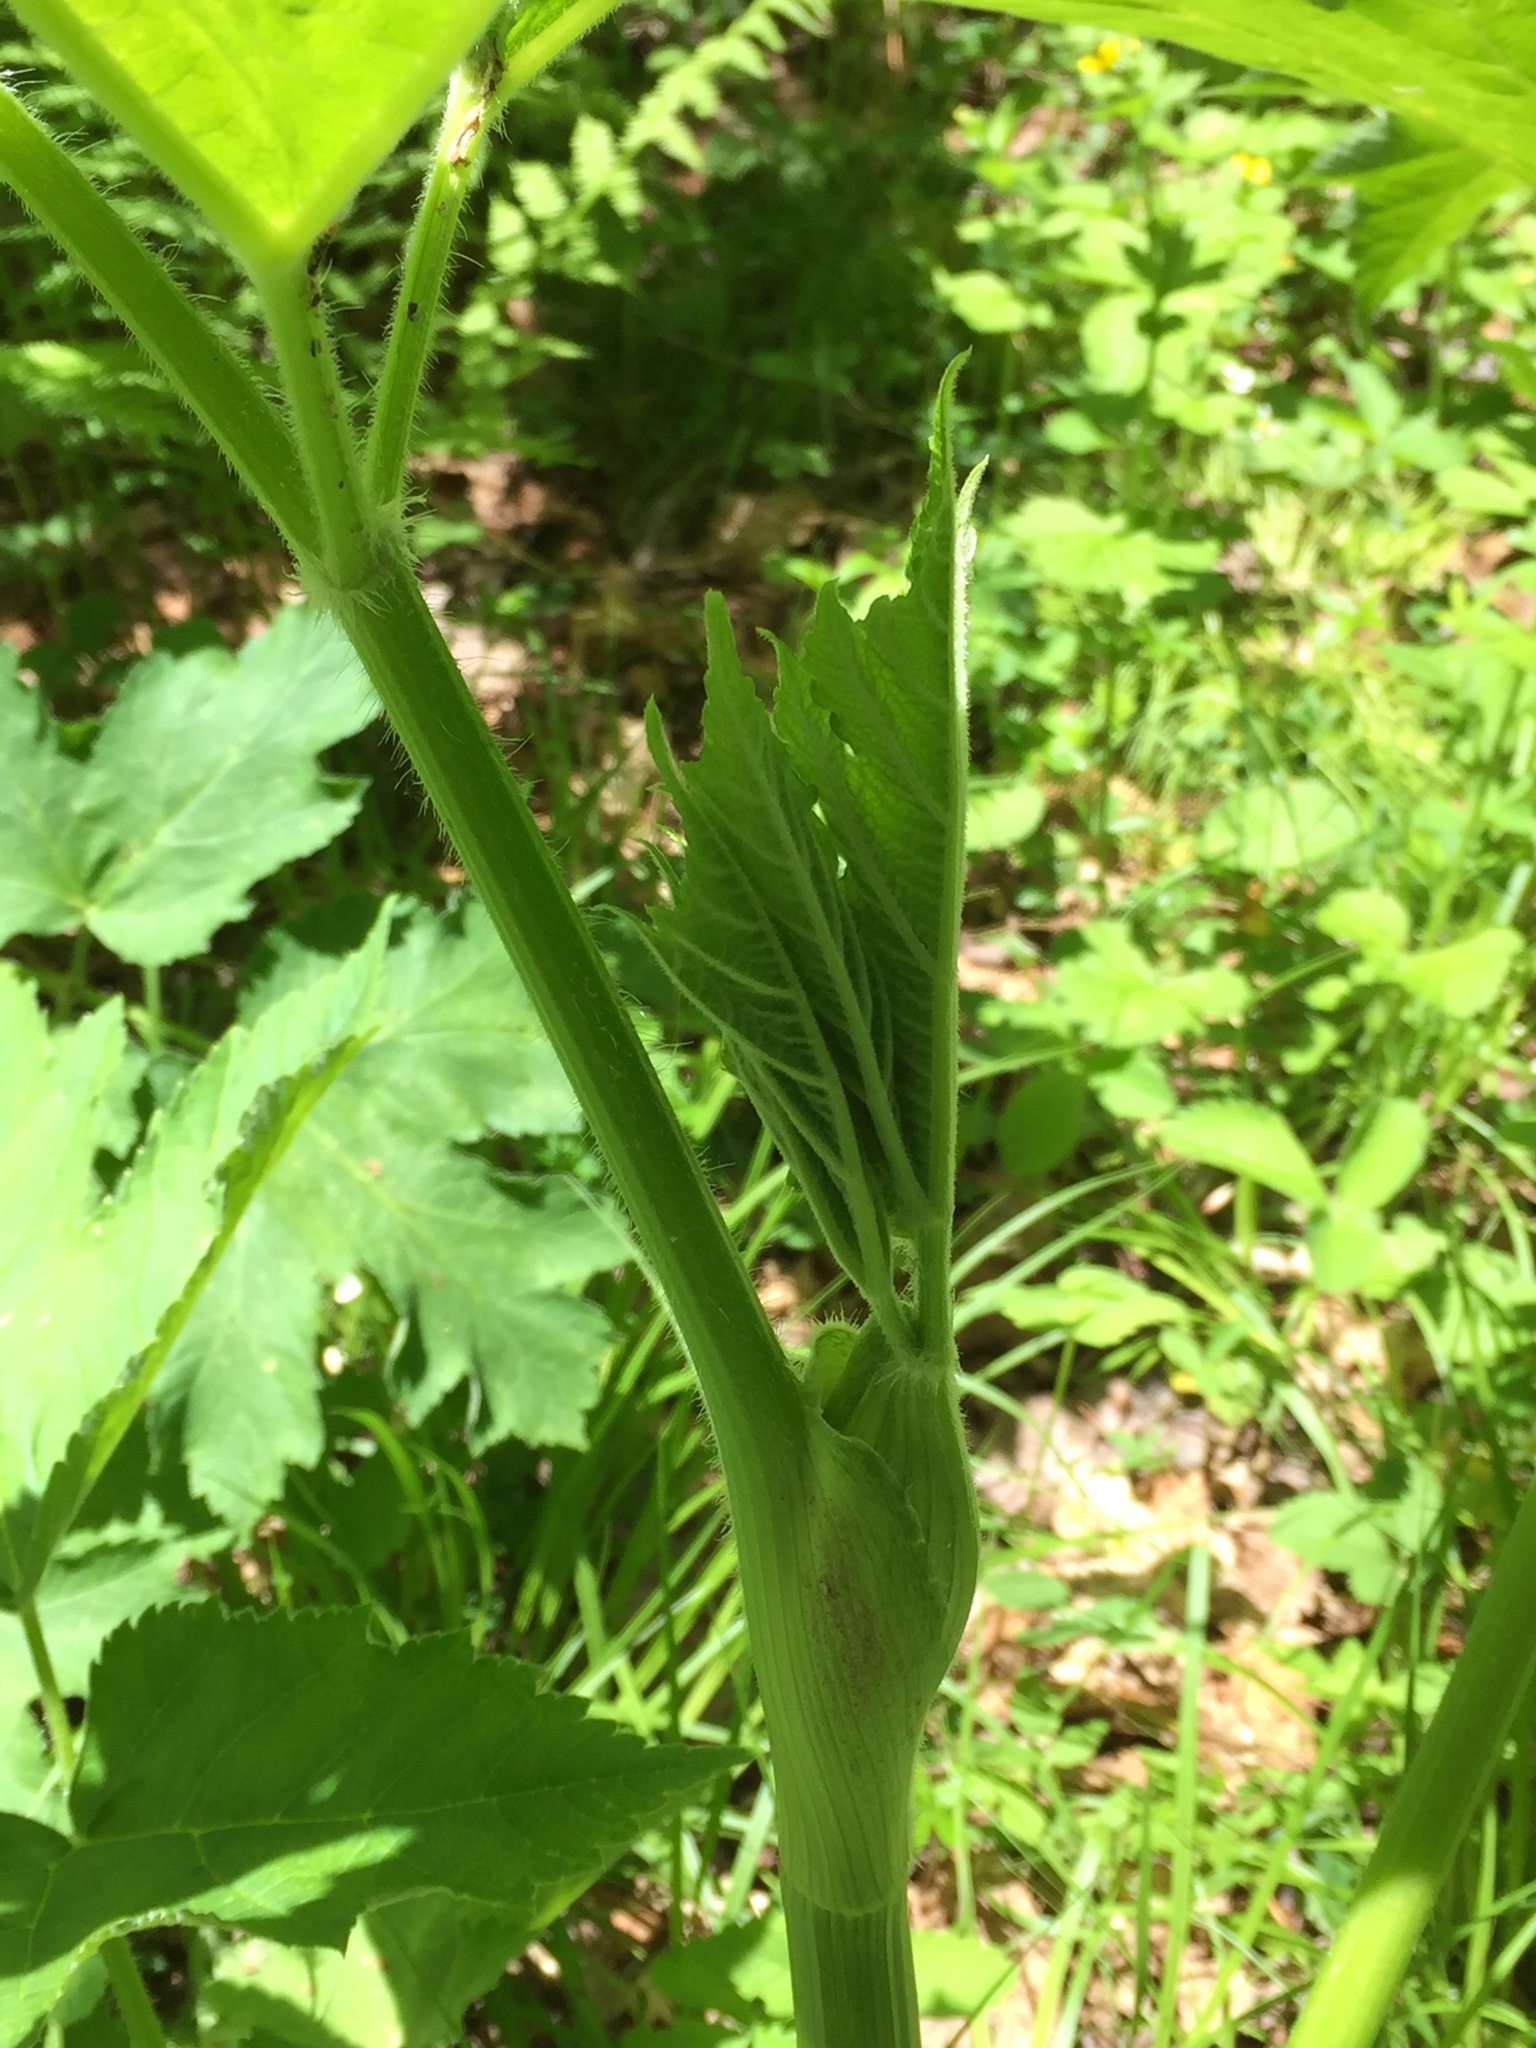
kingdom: Plantae
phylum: Tracheophyta
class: Magnoliopsida
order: Apiales
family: Apiaceae
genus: Heracleum
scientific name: Heracleum maximum
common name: American cow parsnip
